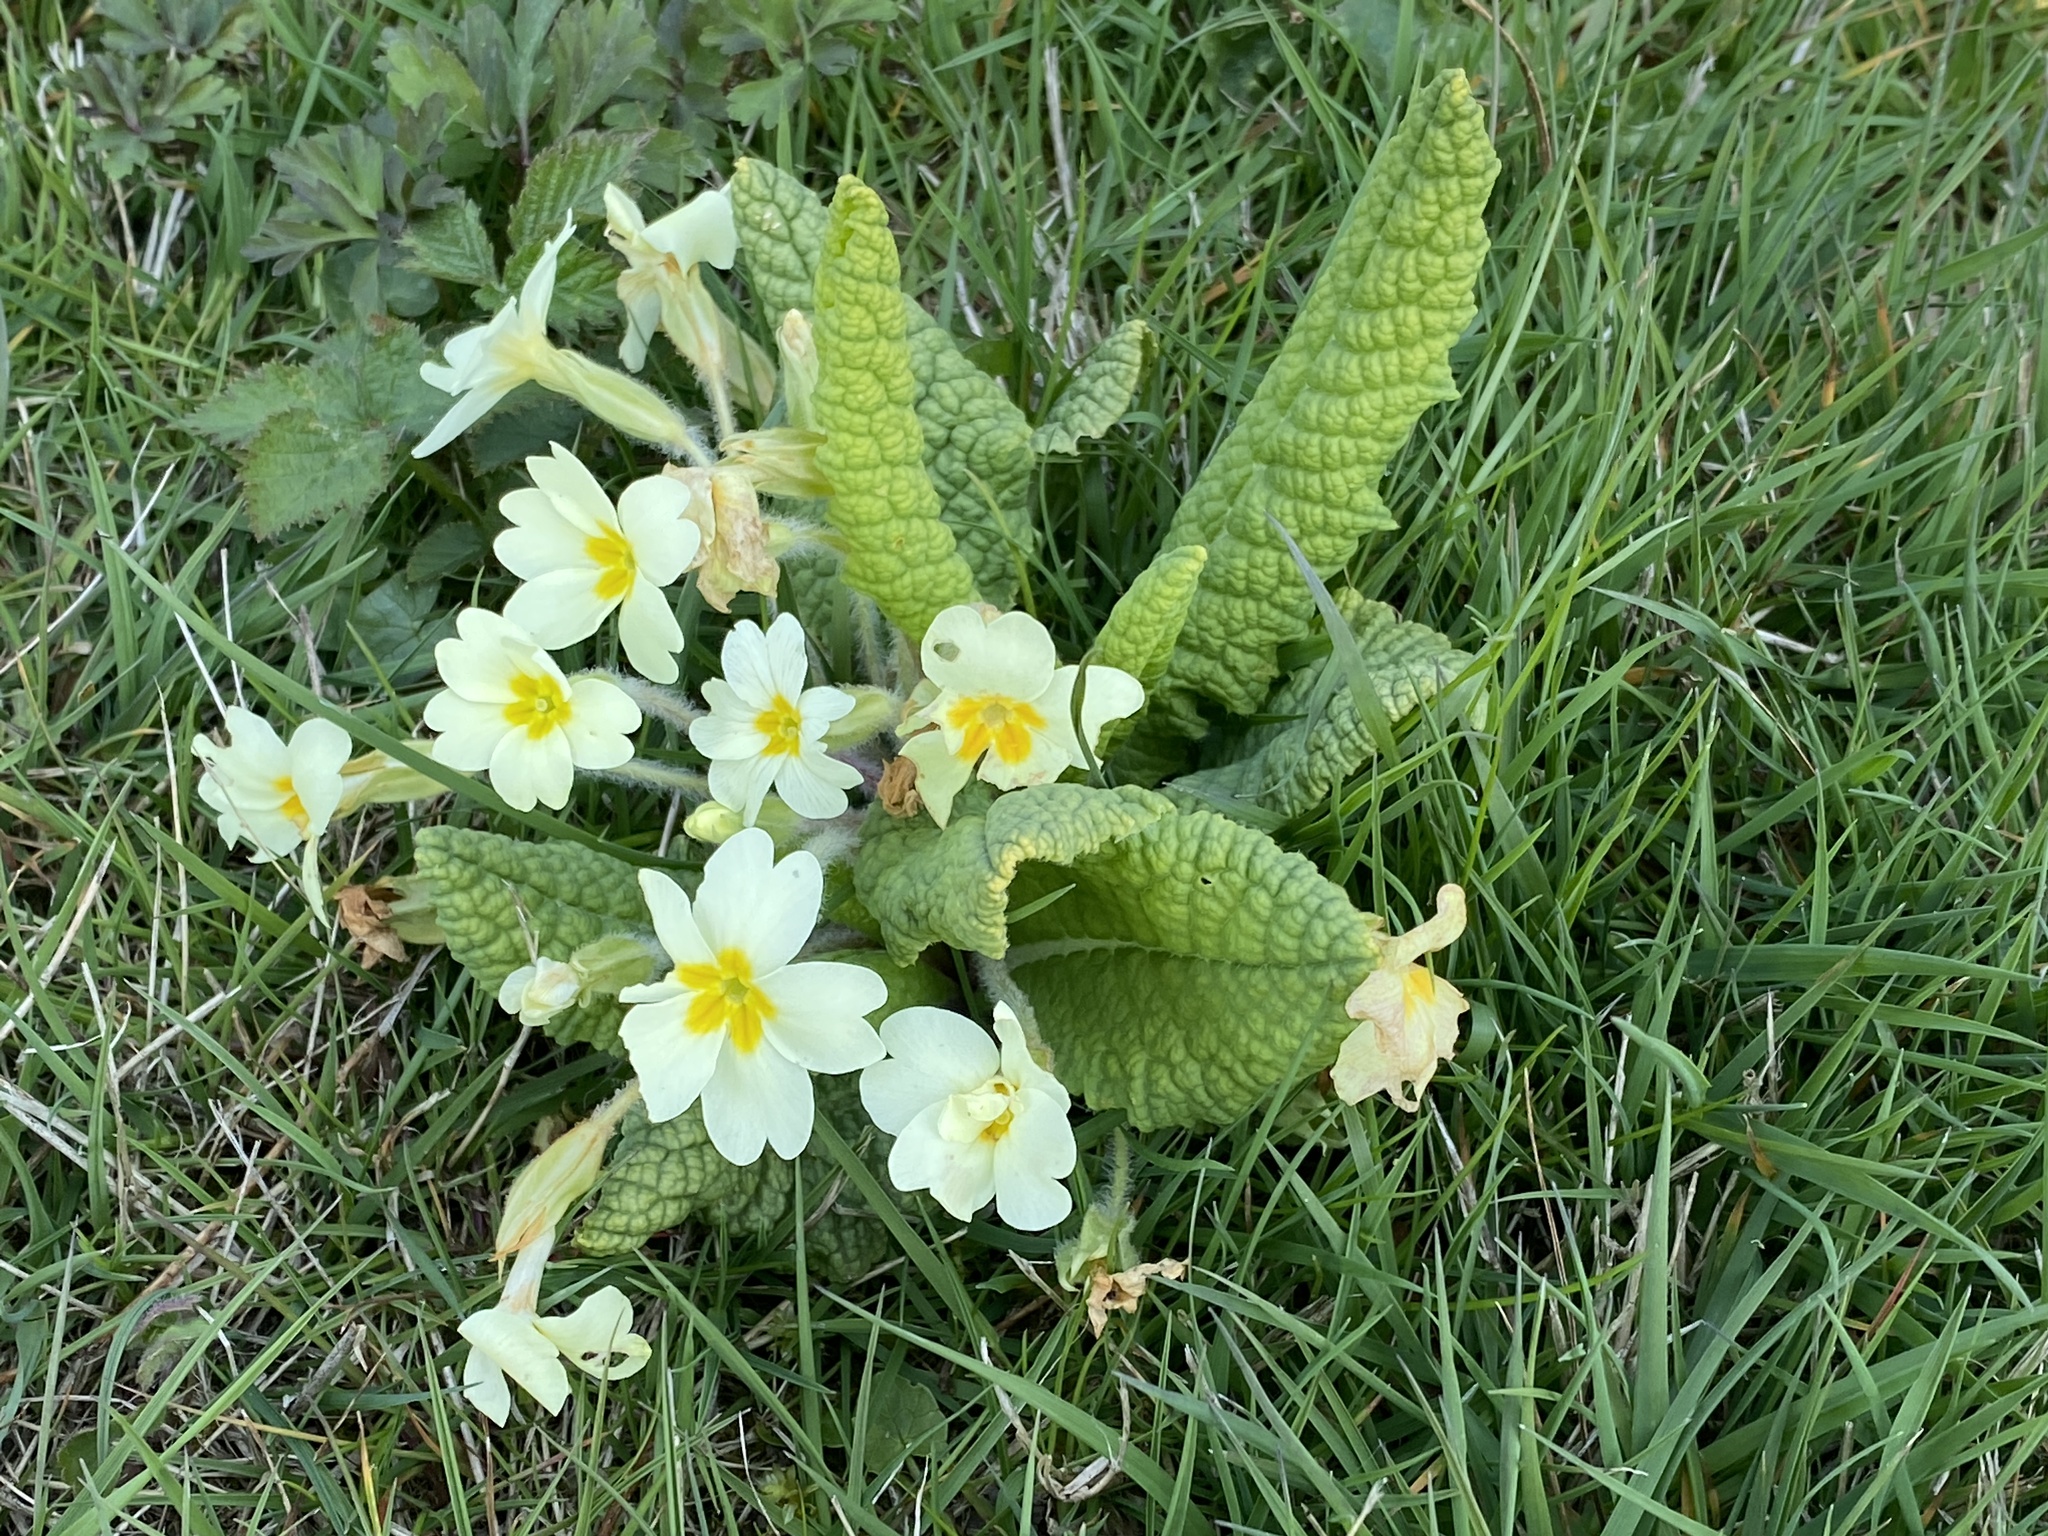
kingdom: Plantae
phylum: Tracheophyta
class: Magnoliopsida
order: Ericales
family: Primulaceae
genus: Primula
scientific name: Primula vulgaris
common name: Primrose
